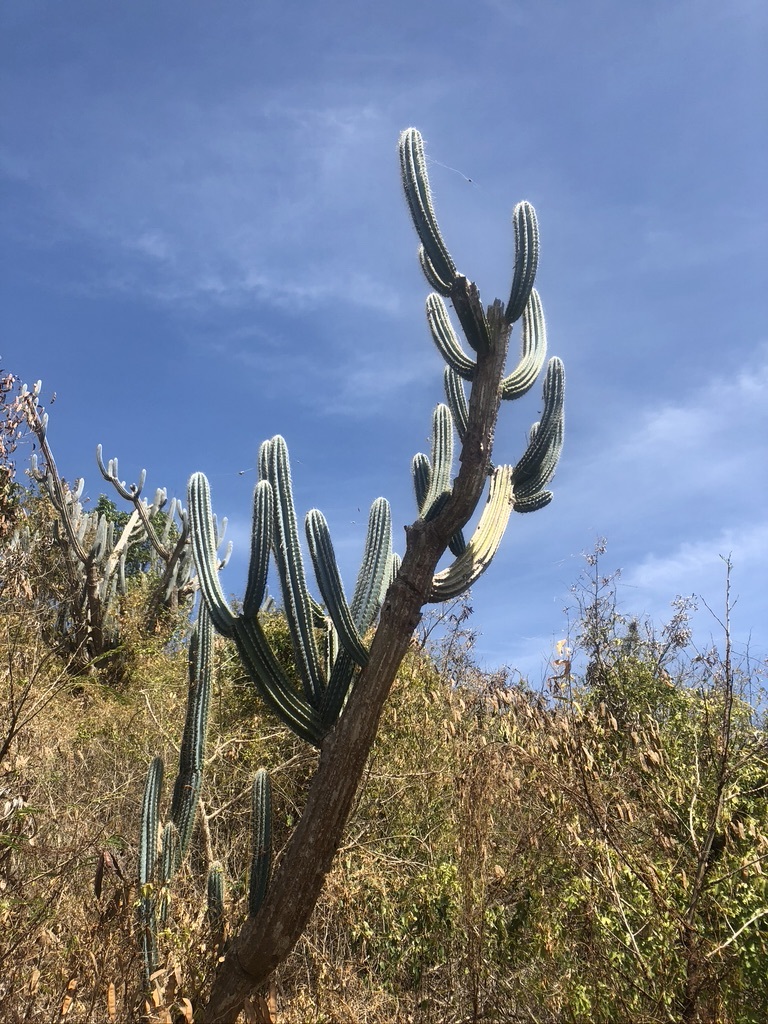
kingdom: Plantae
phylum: Tracheophyta
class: Magnoliopsida
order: Caryophyllales
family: Cactaceae
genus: Pilosocereus
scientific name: Pilosocereus armatus
